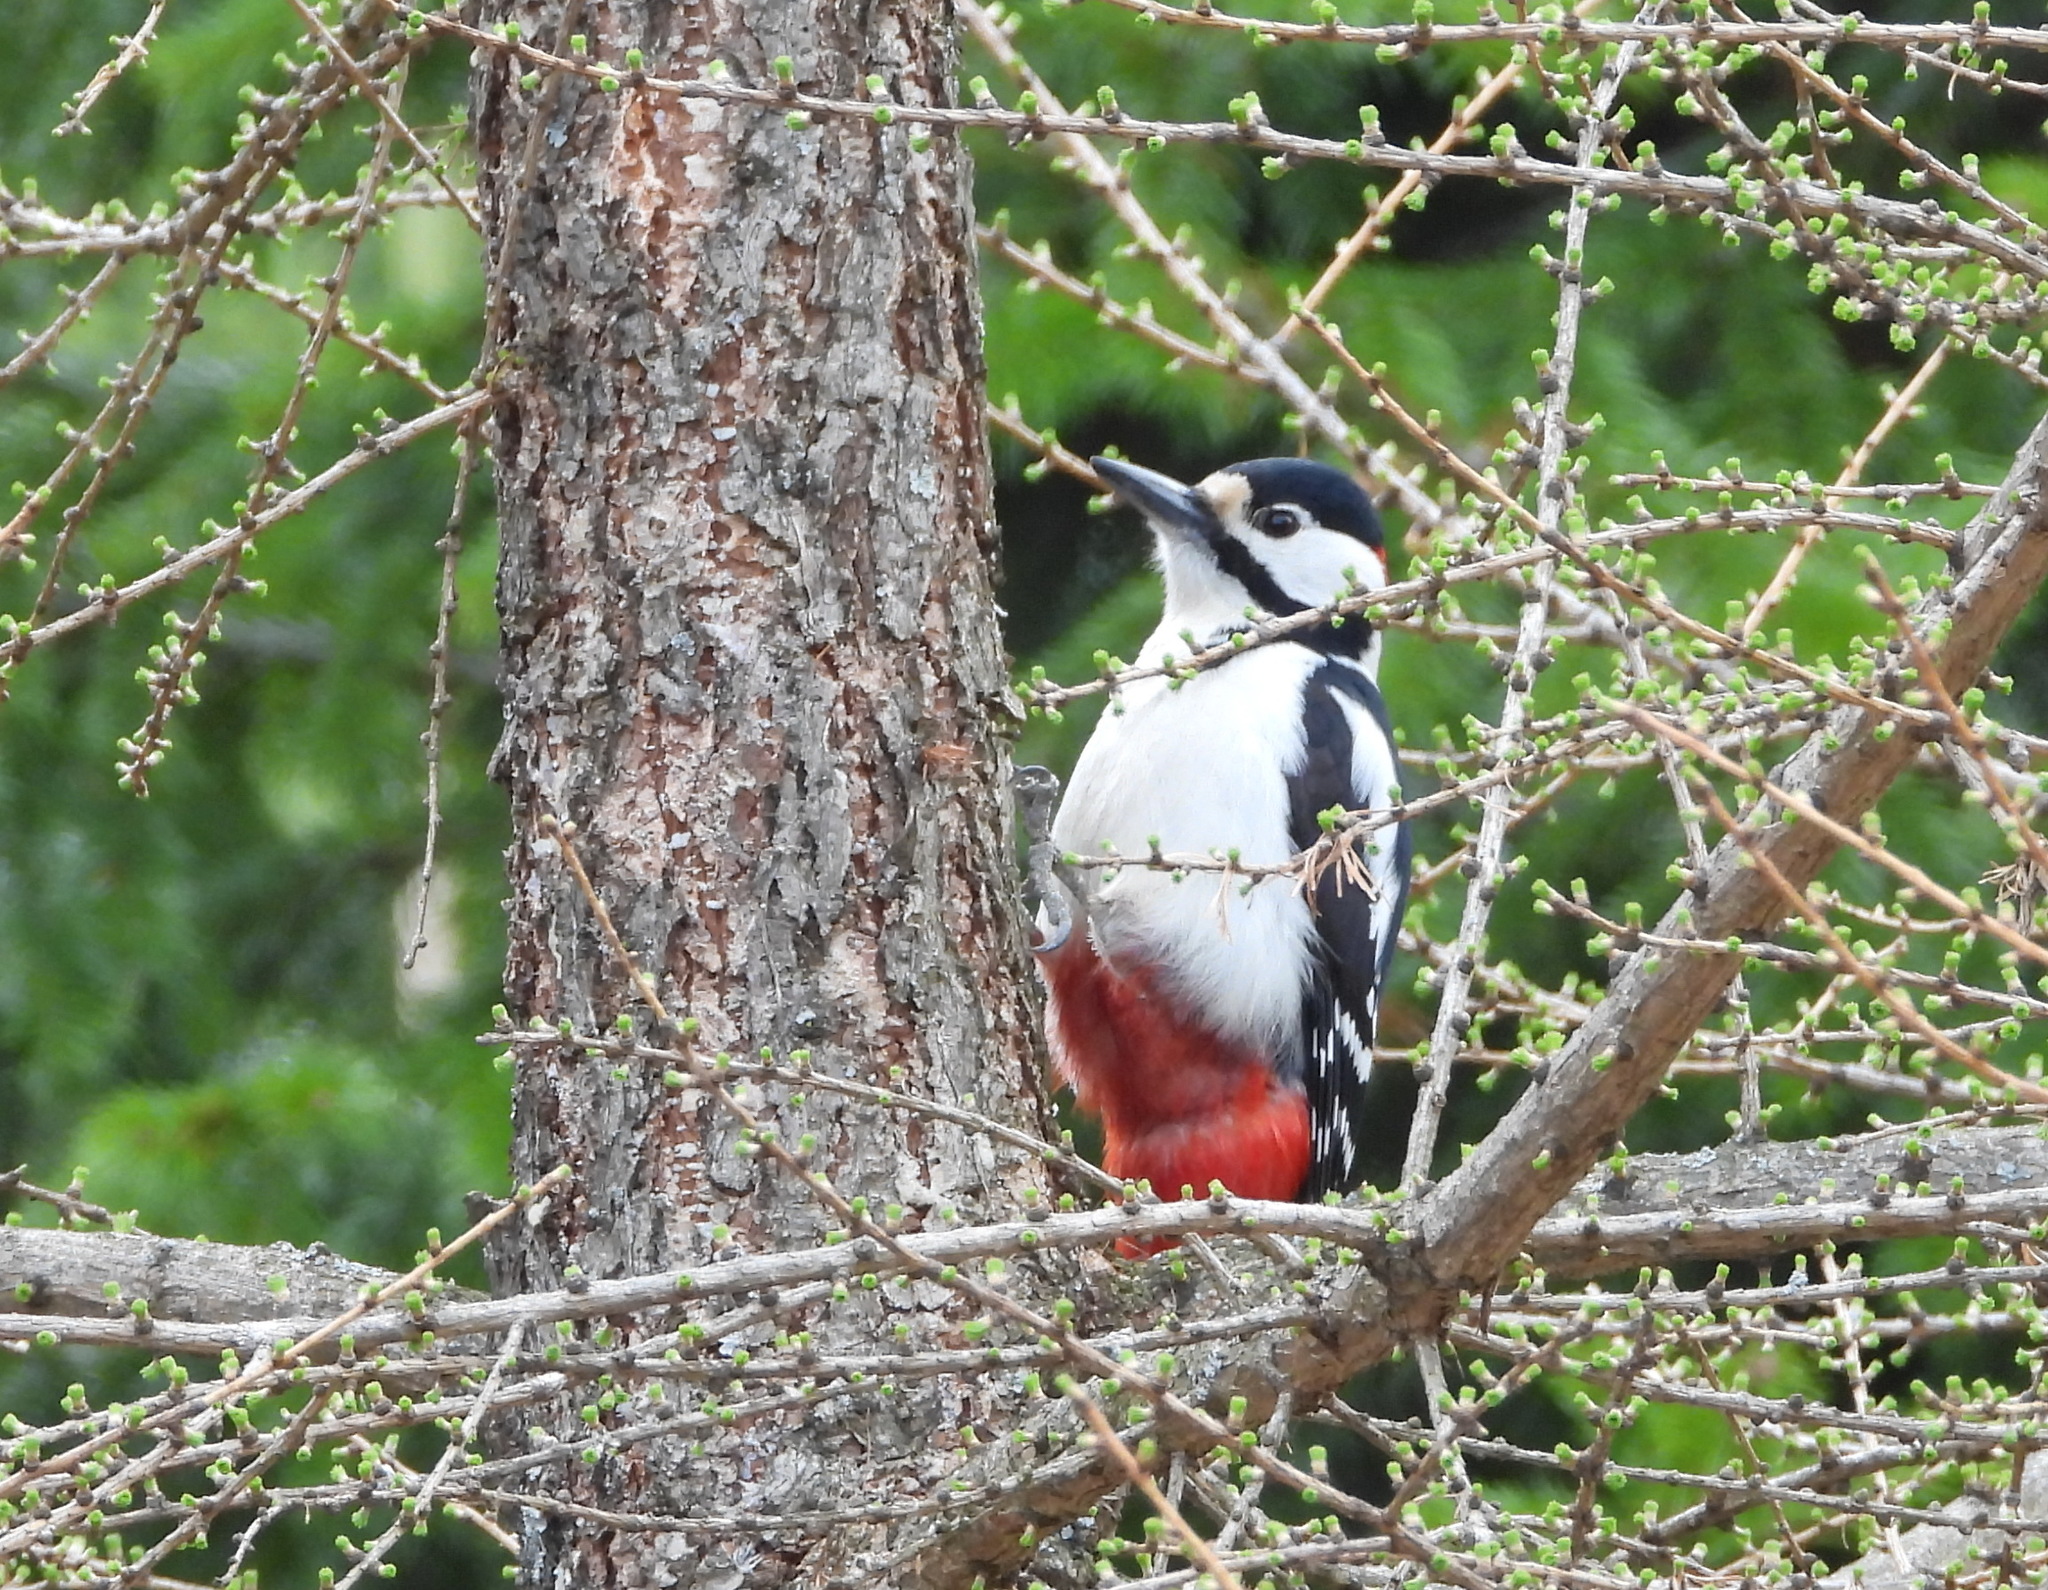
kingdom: Animalia
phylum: Chordata
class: Aves
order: Piciformes
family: Picidae
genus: Dendrocopos
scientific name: Dendrocopos major
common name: Great spotted woodpecker
